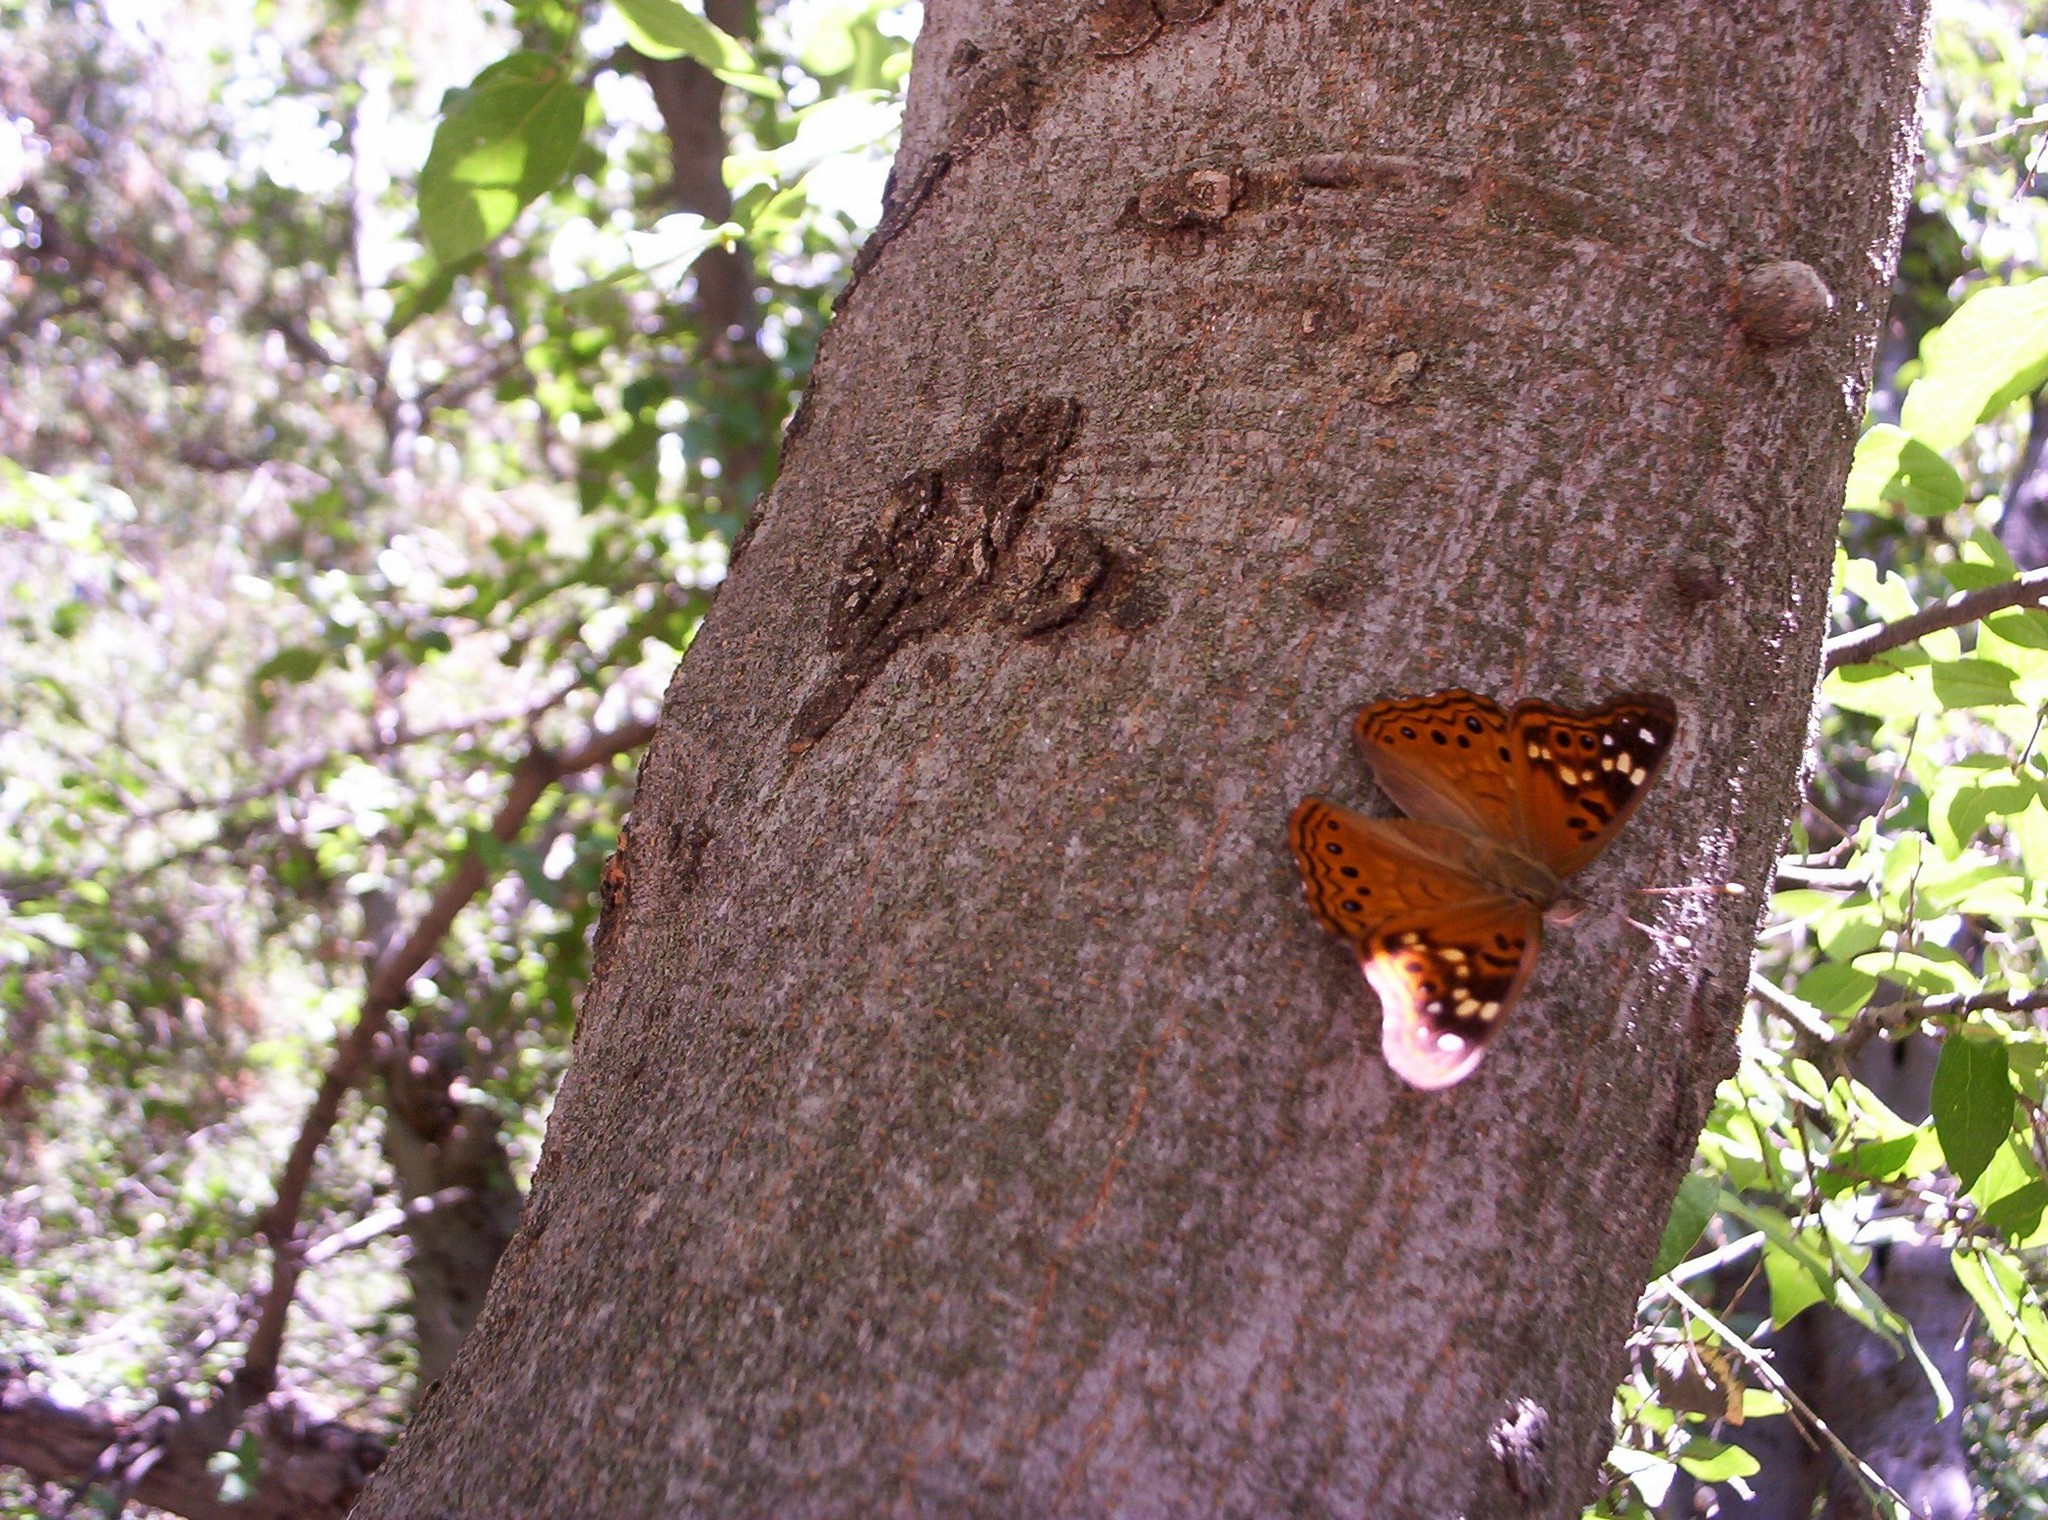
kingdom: Animalia
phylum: Arthropoda
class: Insecta
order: Lepidoptera
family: Nymphalidae
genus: Asterocampa
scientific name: Asterocampa celtis
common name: Hackberry emperor
